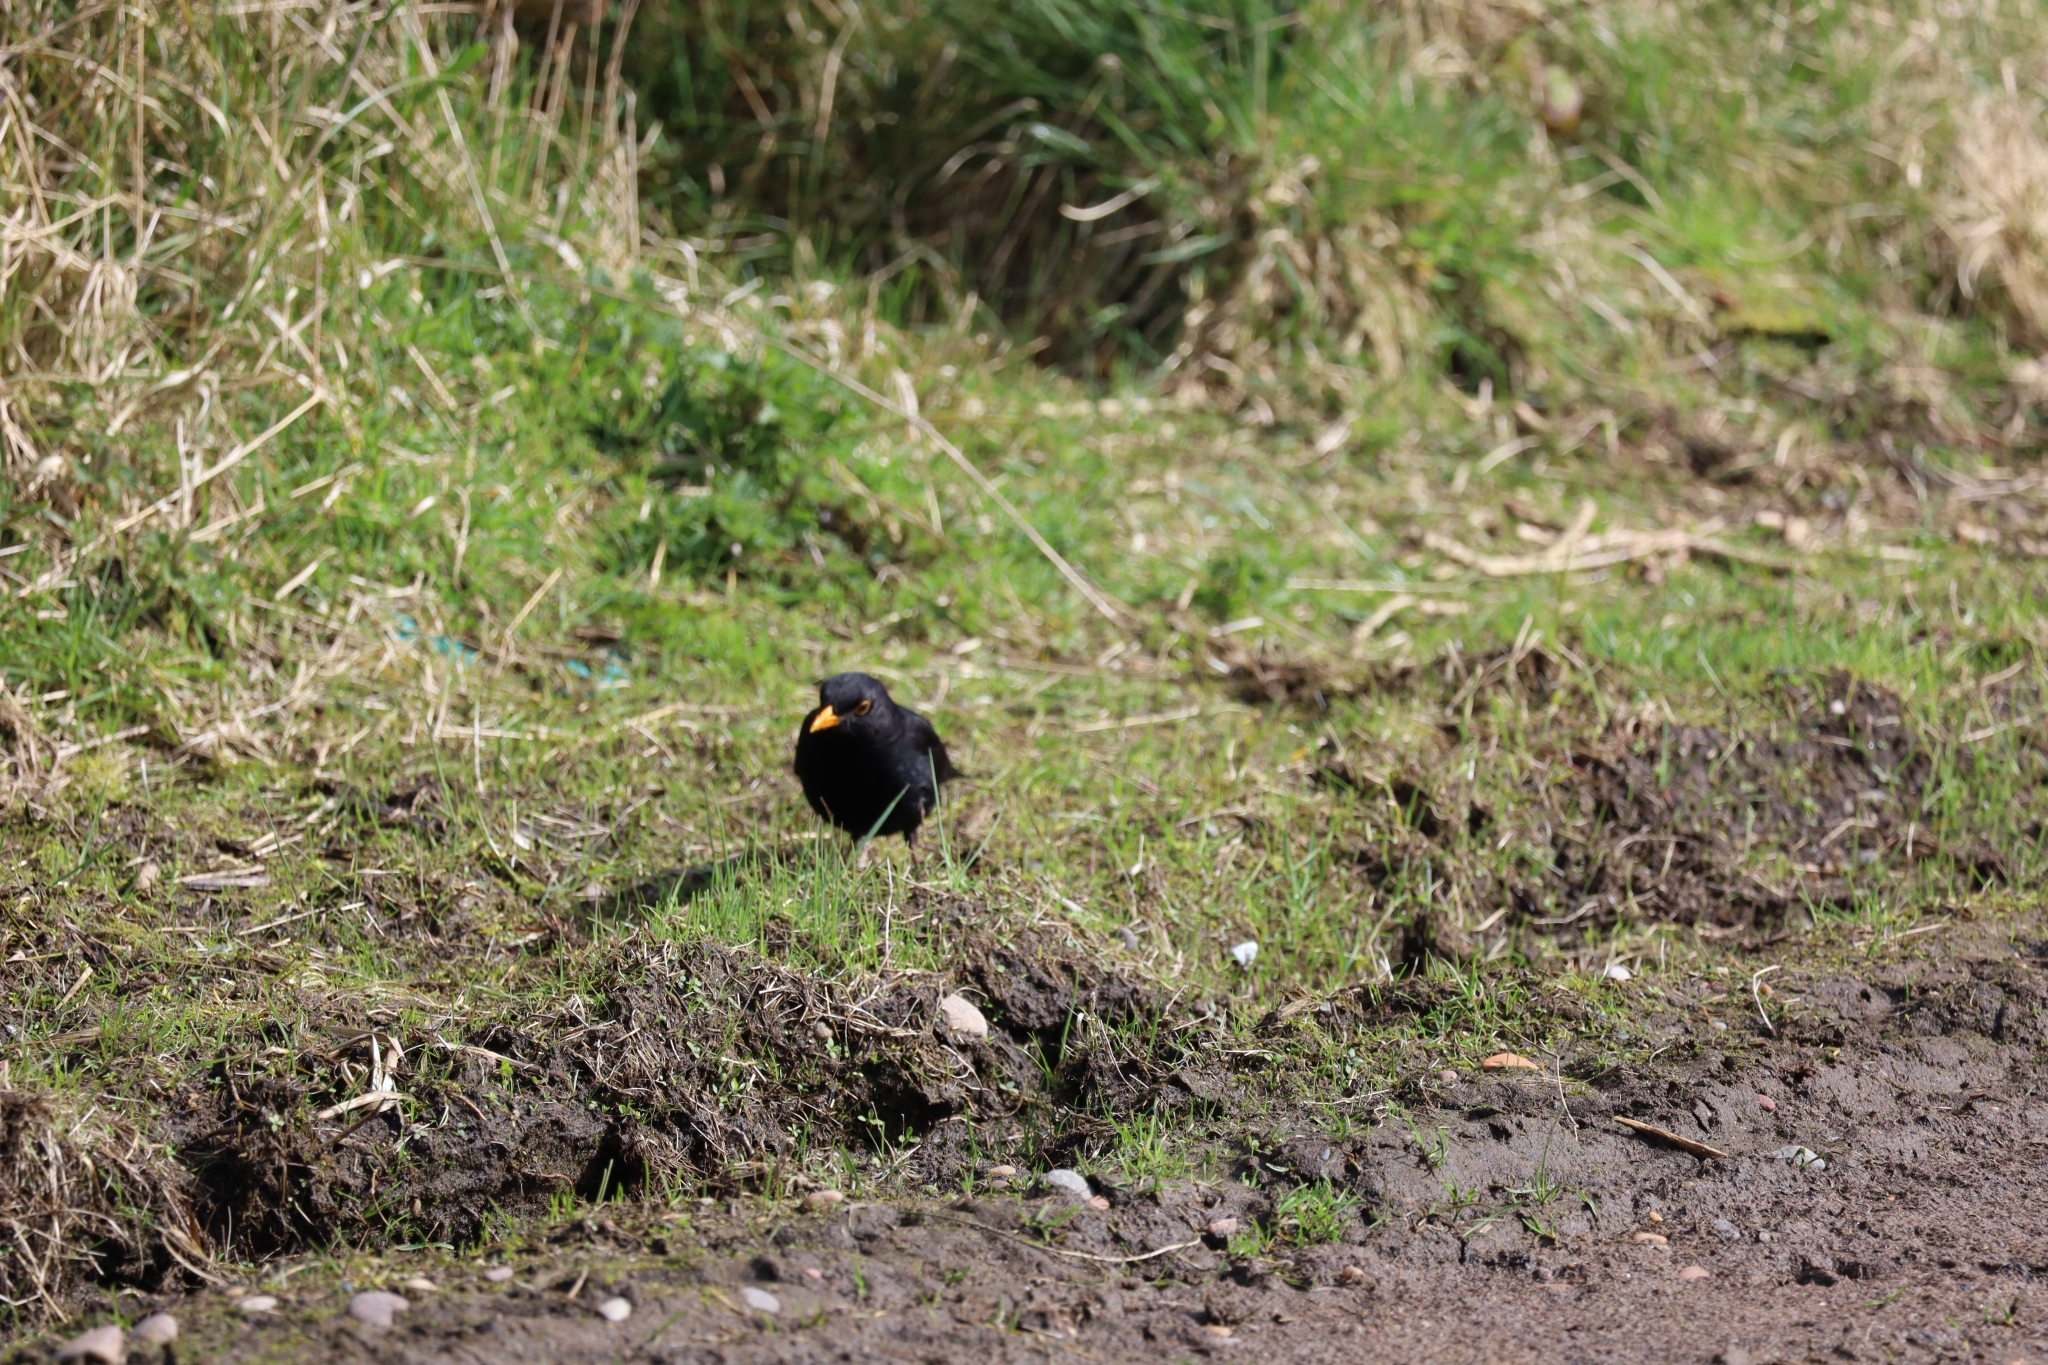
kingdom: Animalia
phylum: Chordata
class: Aves
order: Passeriformes
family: Turdidae
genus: Turdus
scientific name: Turdus merula
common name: Common blackbird
